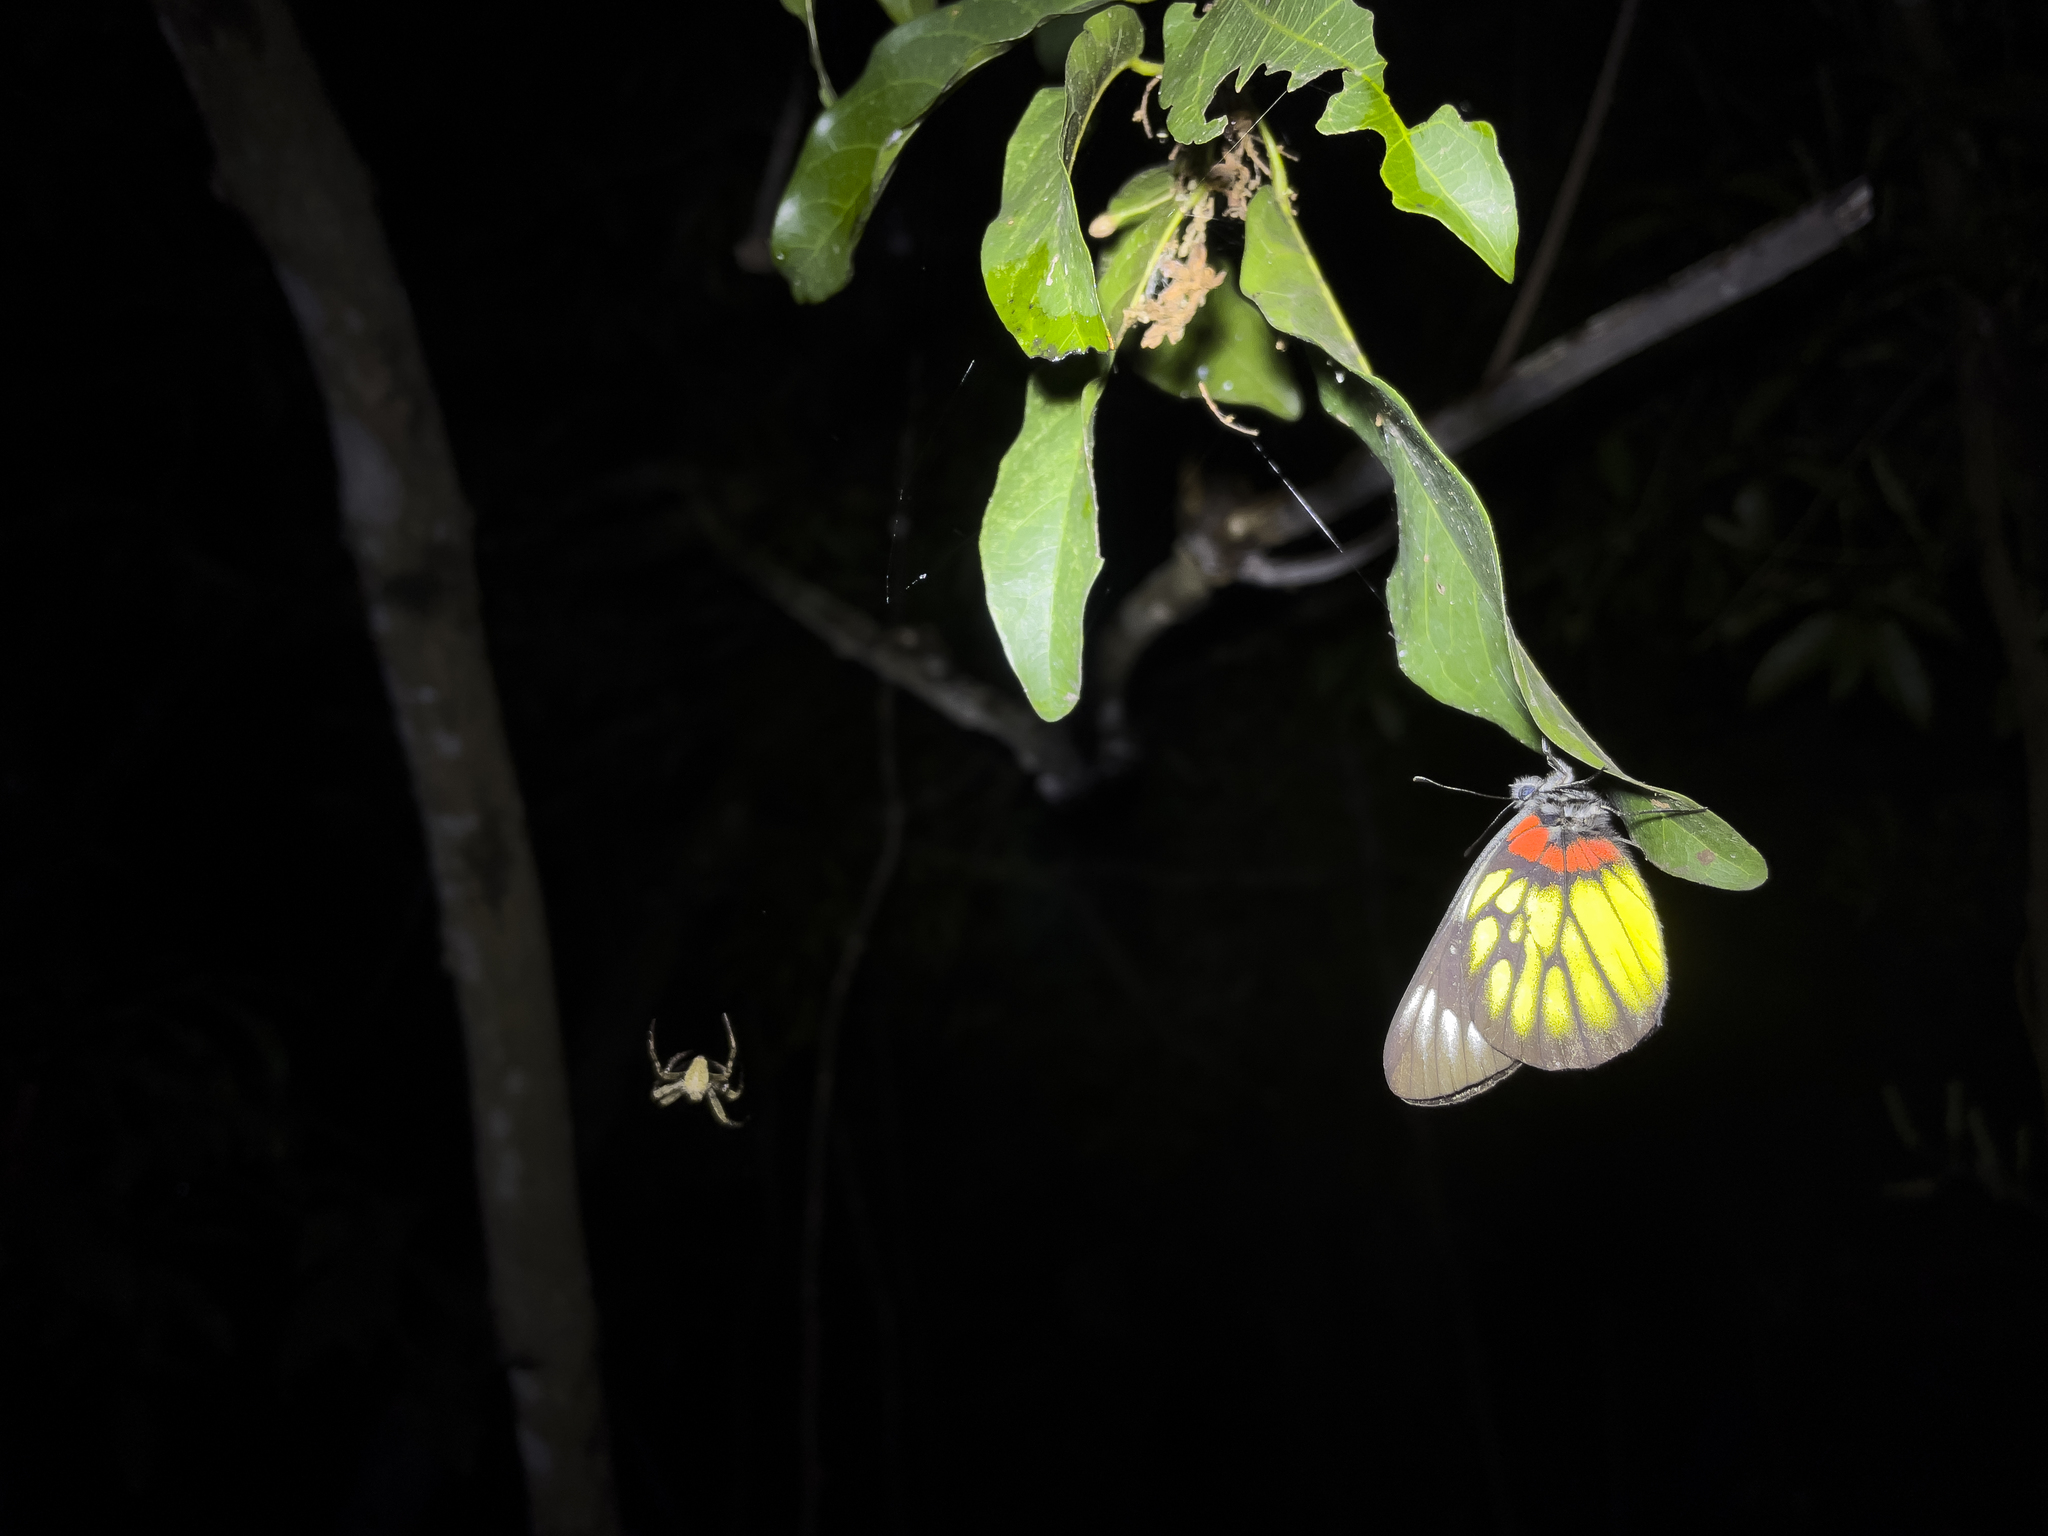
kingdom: Animalia
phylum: Arthropoda
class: Insecta
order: Lepidoptera
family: Pieridae
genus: Delias
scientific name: Delias pasithoe
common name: Red-base jezebel
